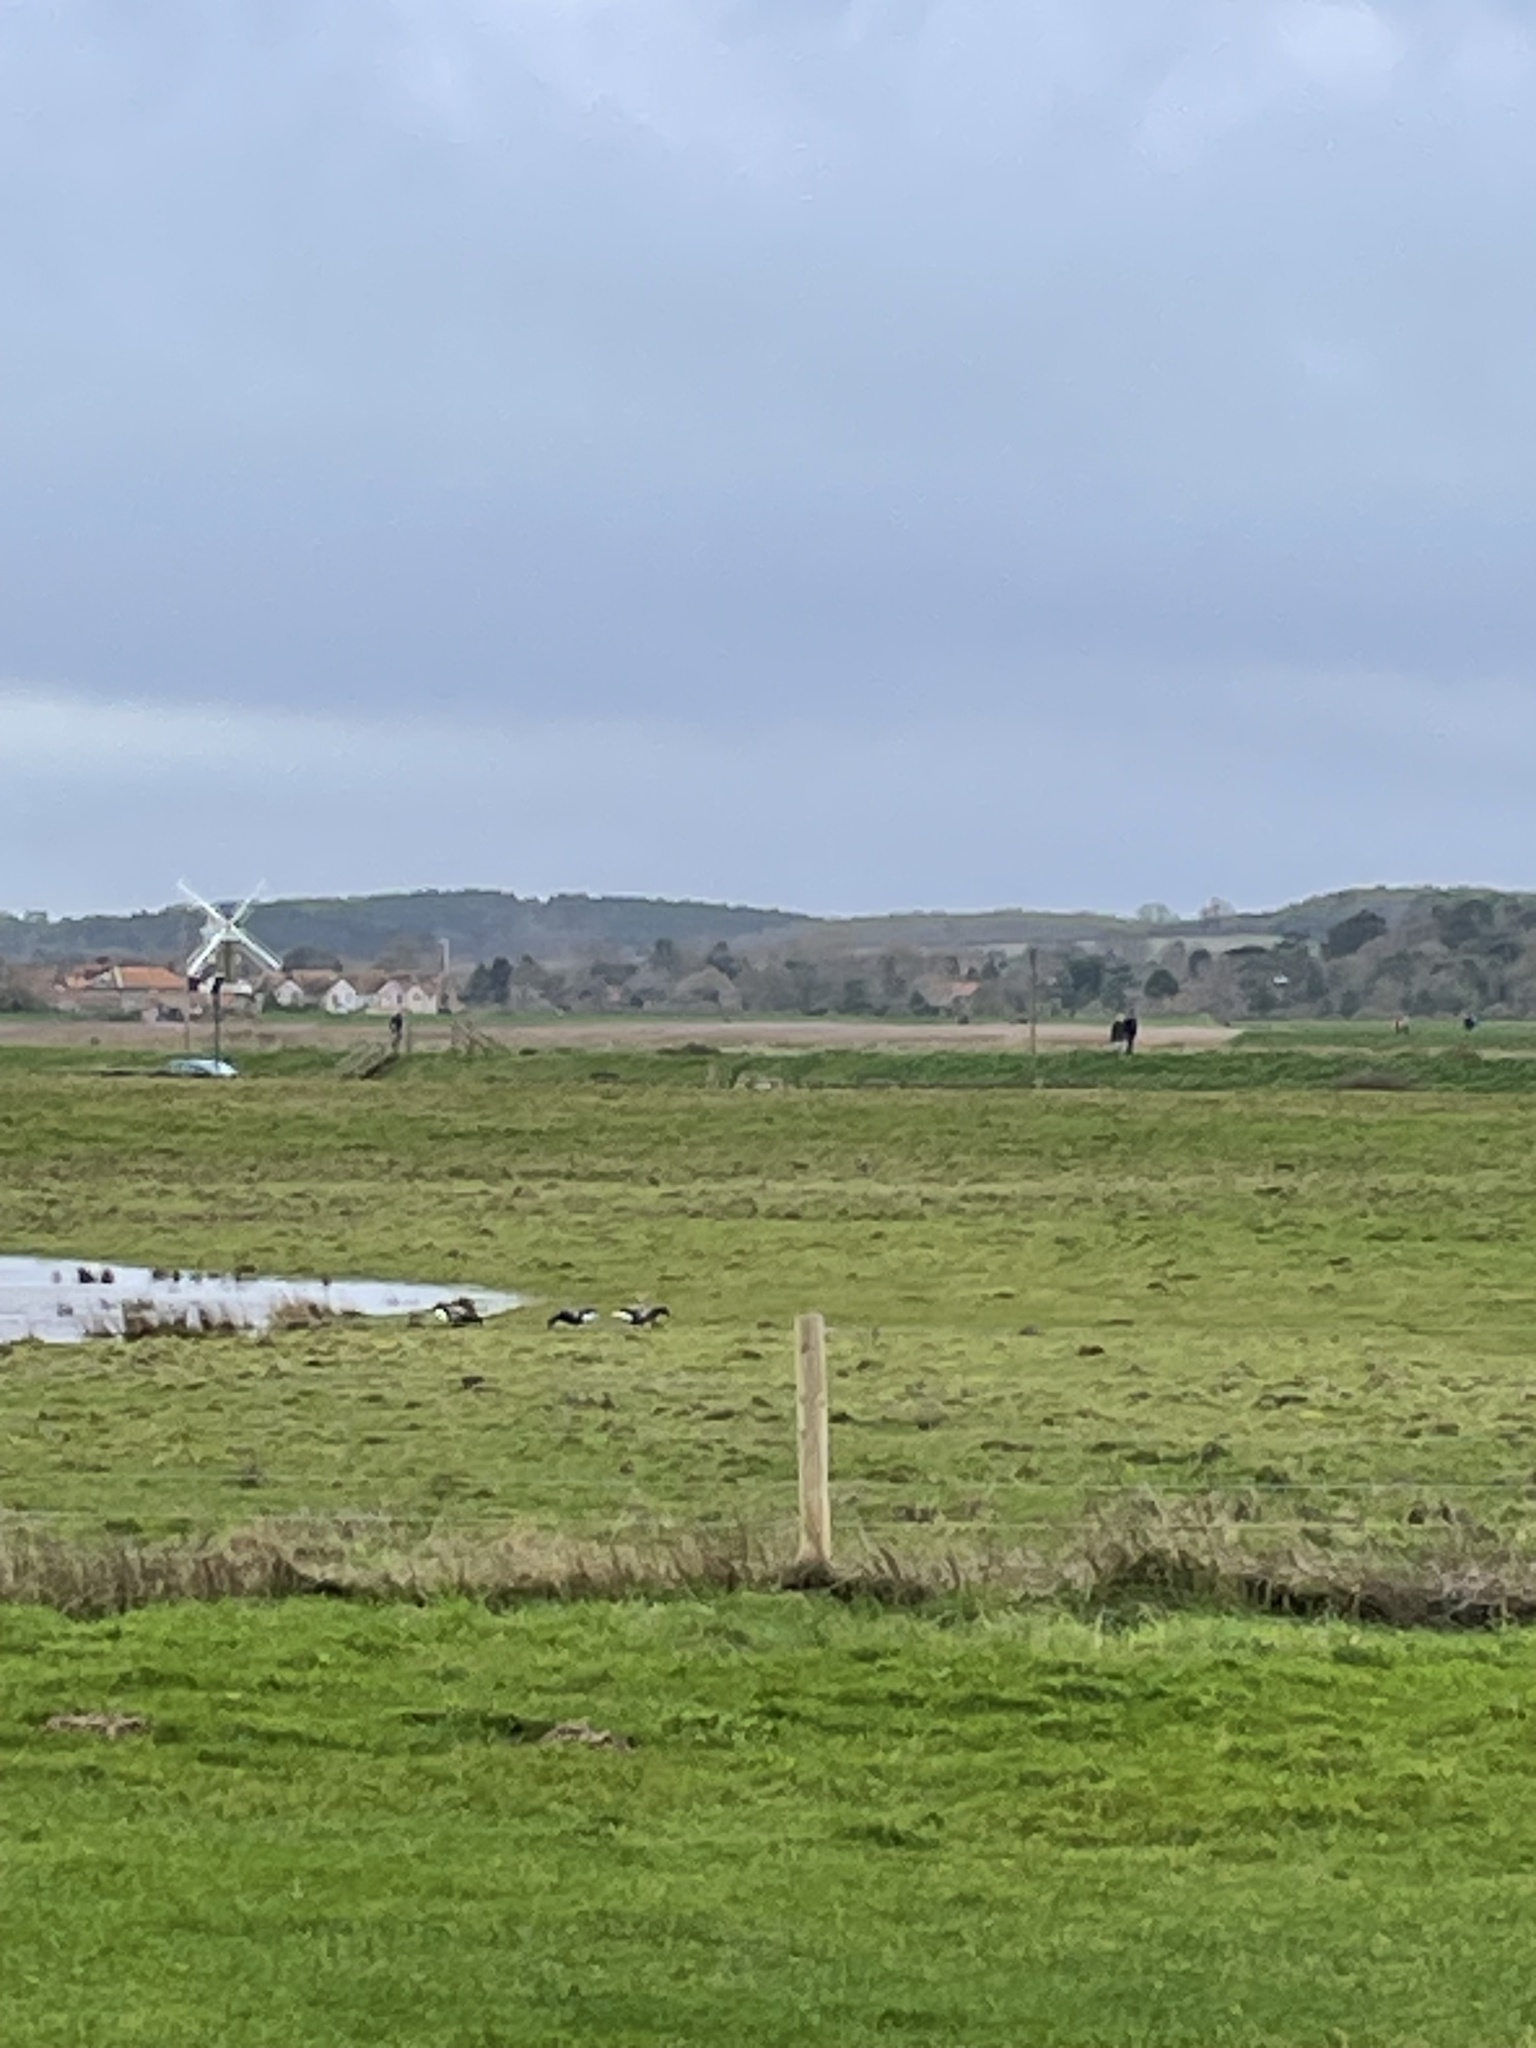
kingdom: Animalia
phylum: Chordata
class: Aves
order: Anseriformes
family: Anatidae
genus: Branta
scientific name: Branta bernicla
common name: Brant goose
